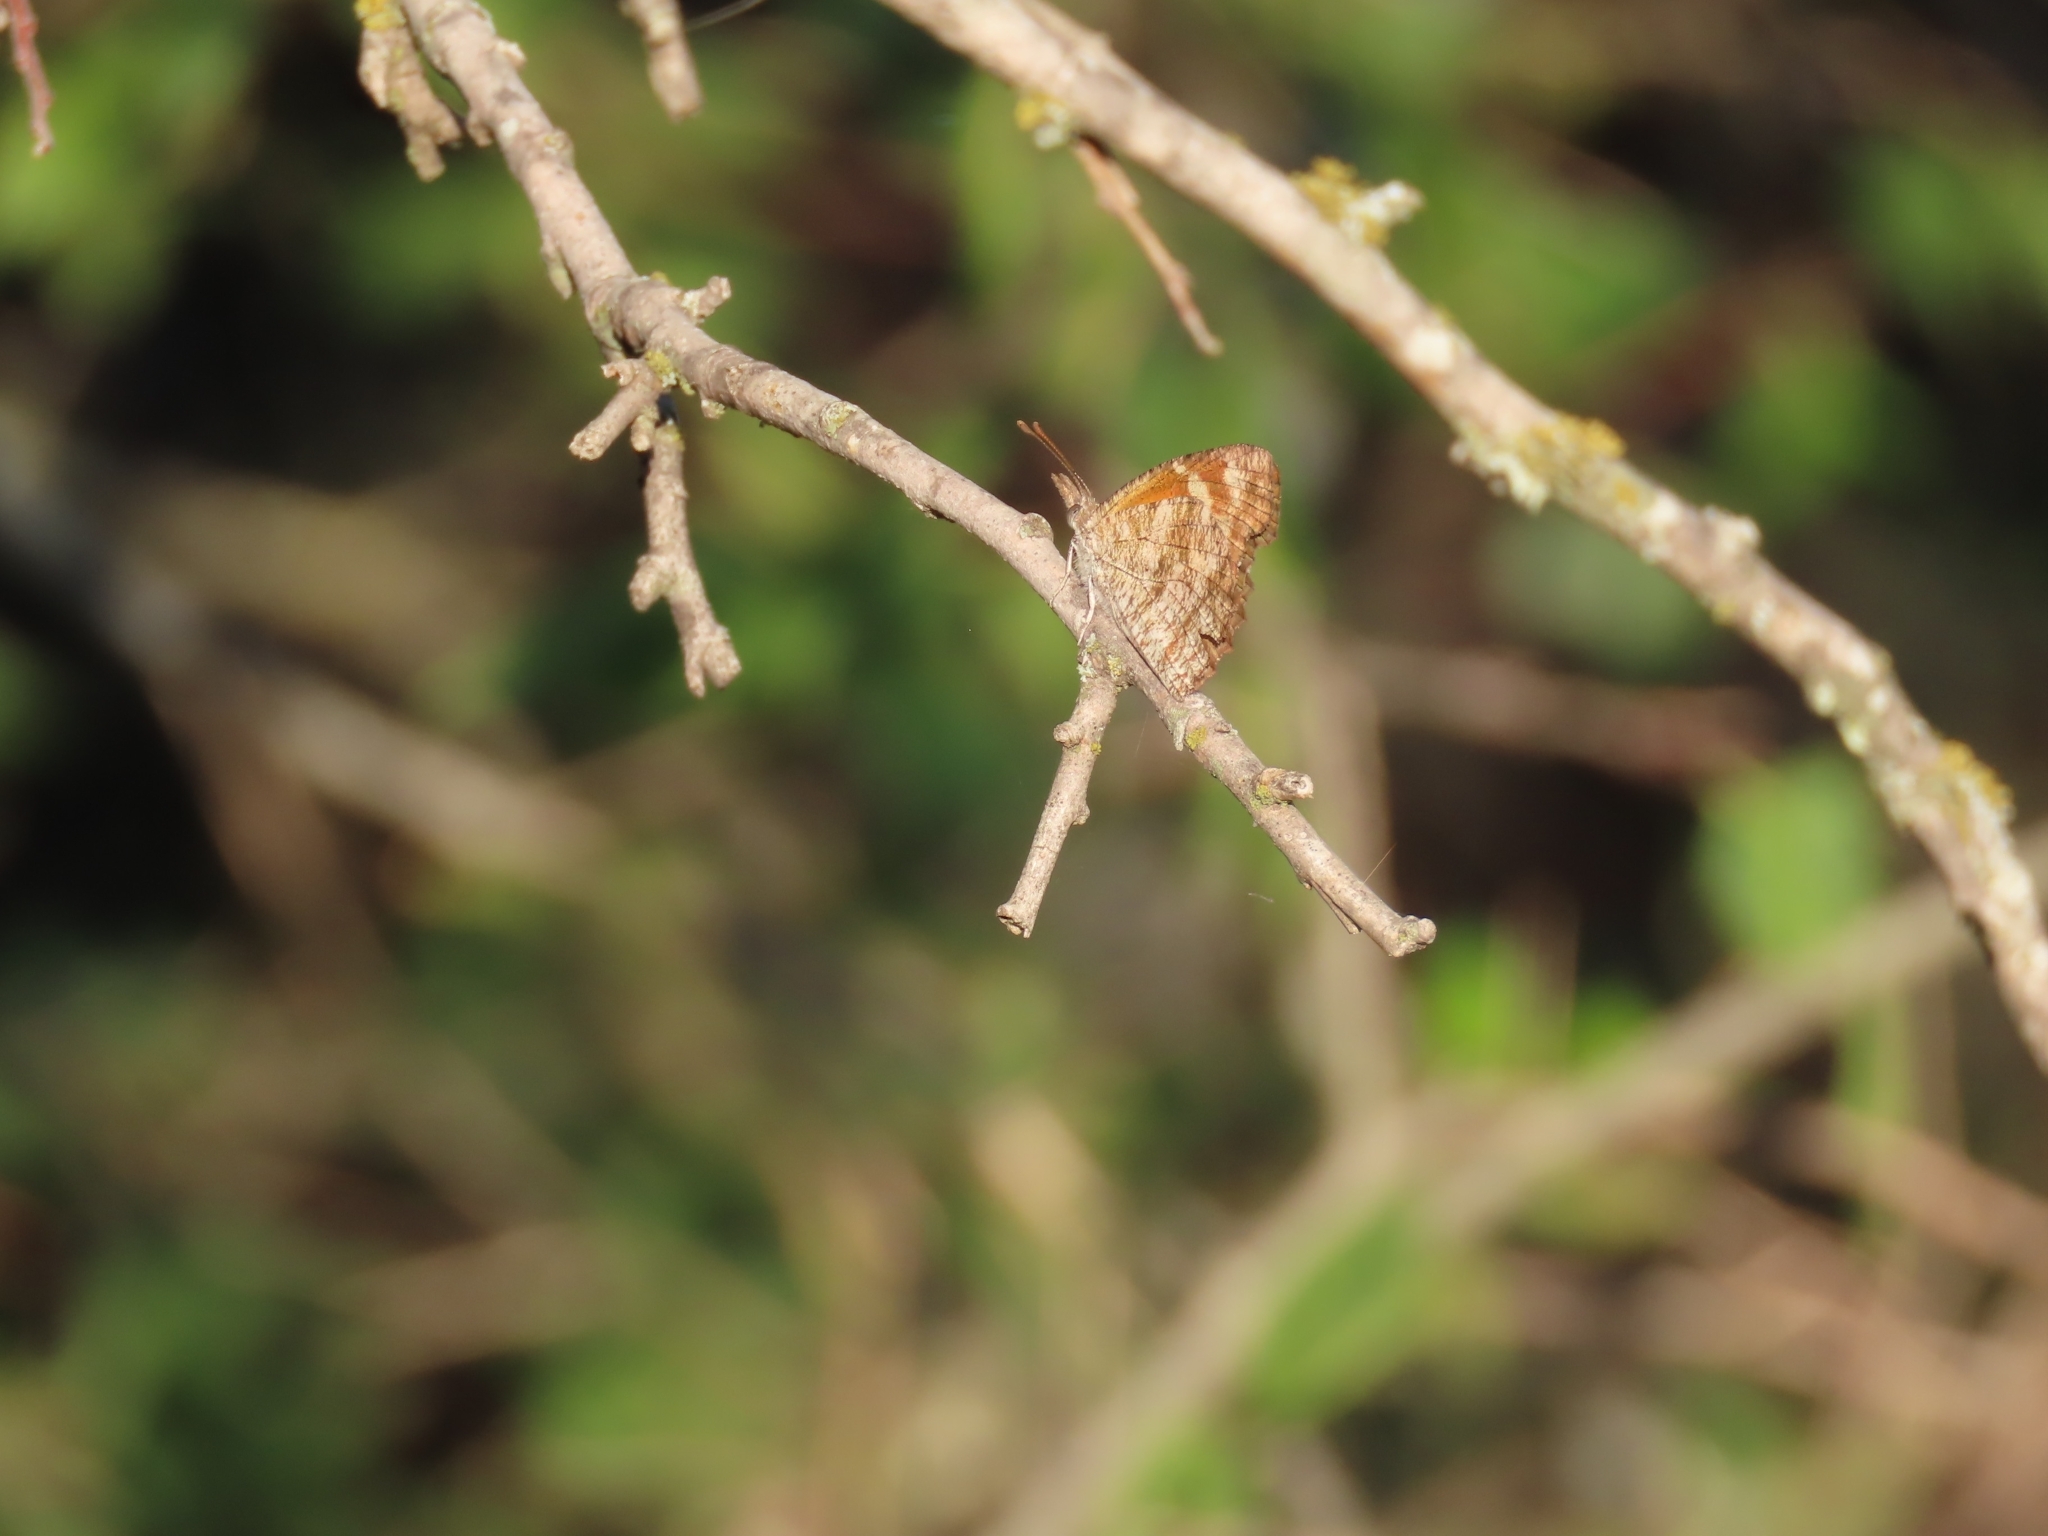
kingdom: Animalia
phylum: Arthropoda
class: Insecta
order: Lepidoptera
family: Nymphalidae
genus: Libytheana
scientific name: Libytheana carinenta
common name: American snout
